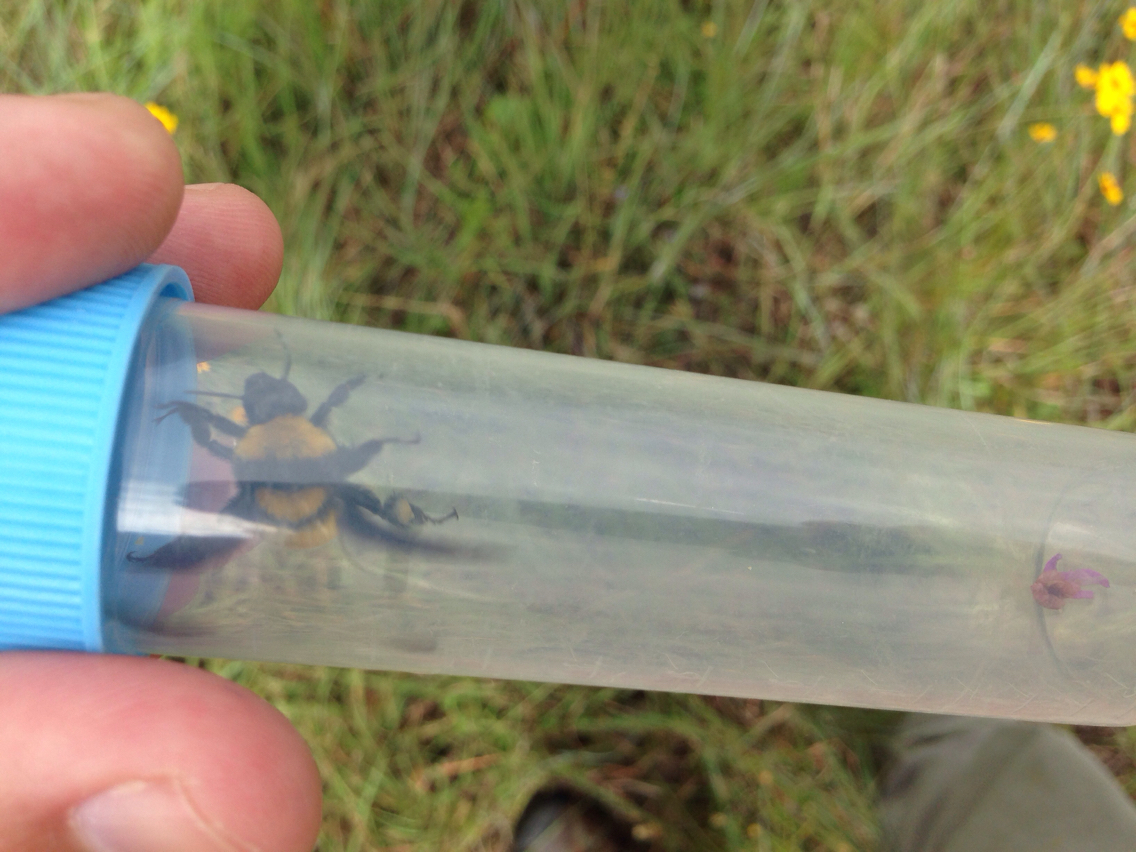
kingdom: Animalia
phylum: Arthropoda
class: Insecta
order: Hymenoptera
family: Apidae
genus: Bombus
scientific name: Bombus sonorus
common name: Sonoran bumble bee
